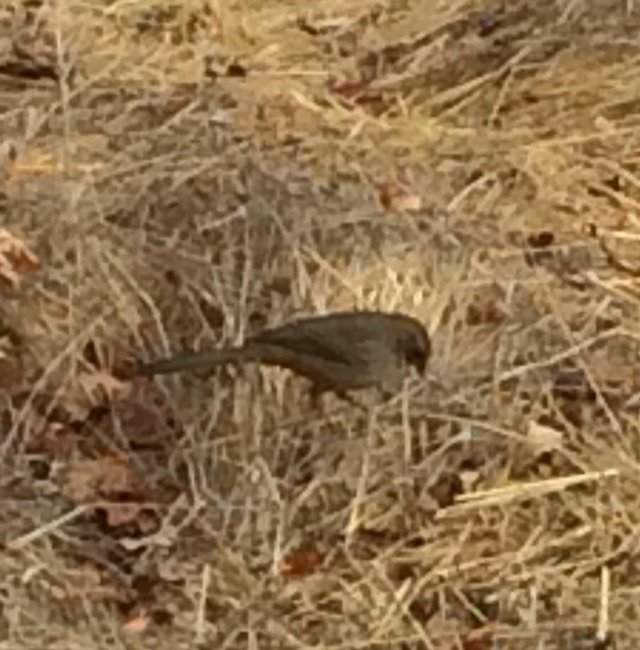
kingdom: Animalia
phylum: Chordata
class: Aves
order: Passeriformes
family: Passerellidae
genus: Melozone
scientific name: Melozone crissalis
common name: California towhee
